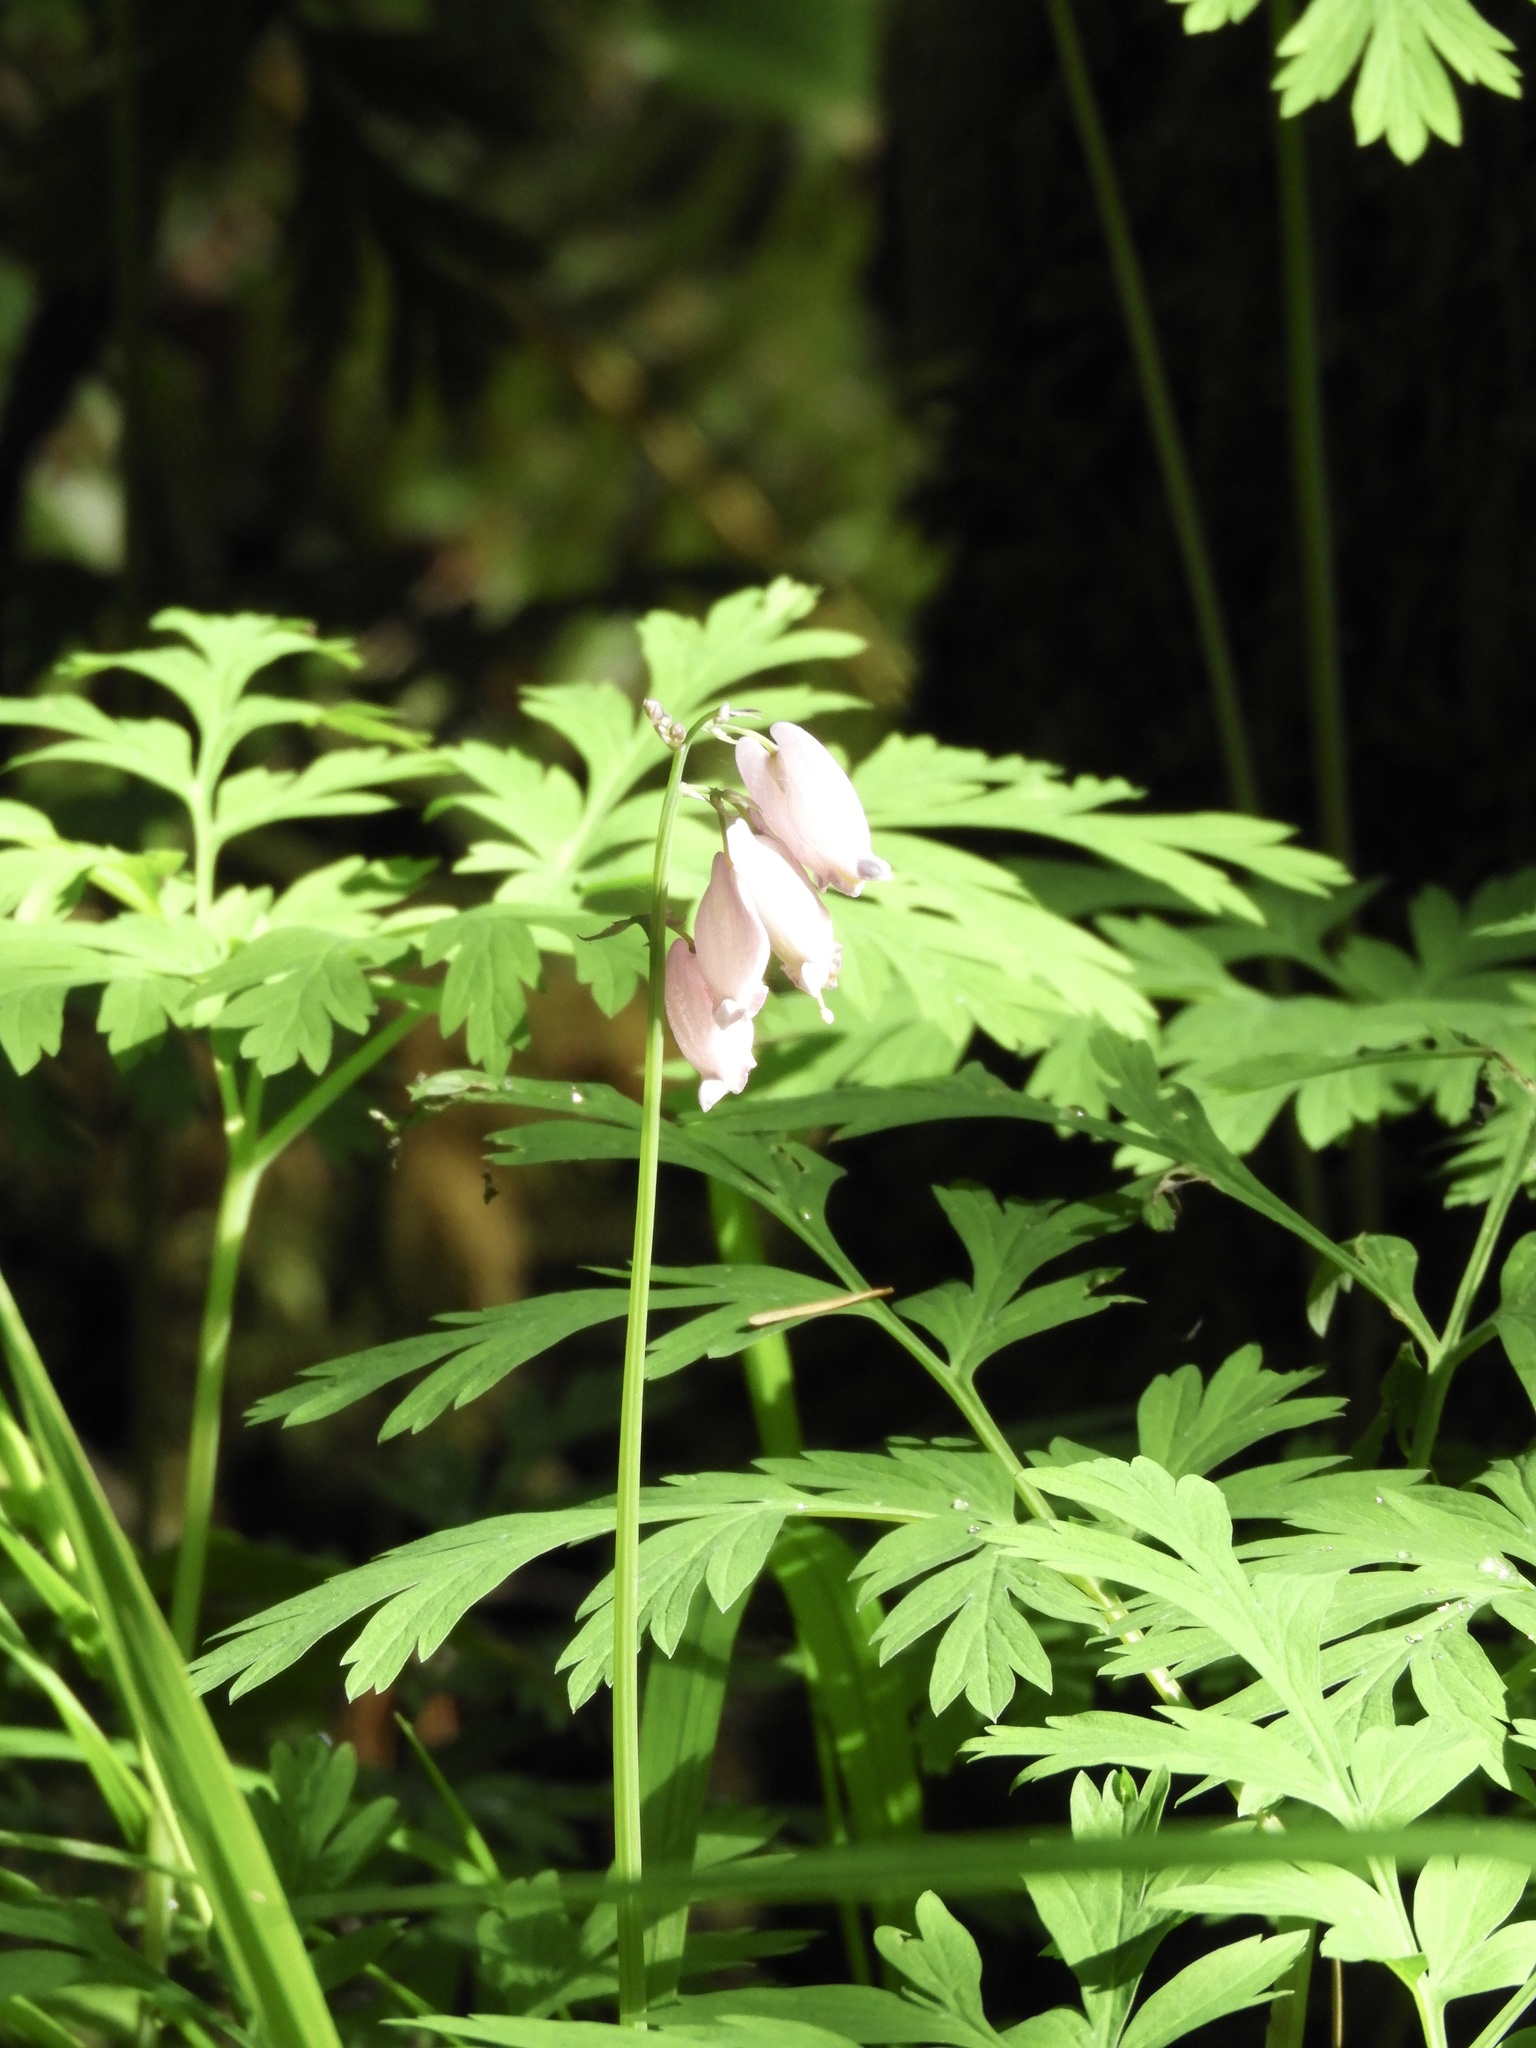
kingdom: Plantae
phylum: Tracheophyta
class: Magnoliopsida
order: Ranunculales
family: Papaveraceae
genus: Dicentra
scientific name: Dicentra formosa
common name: Bleeding-heart
